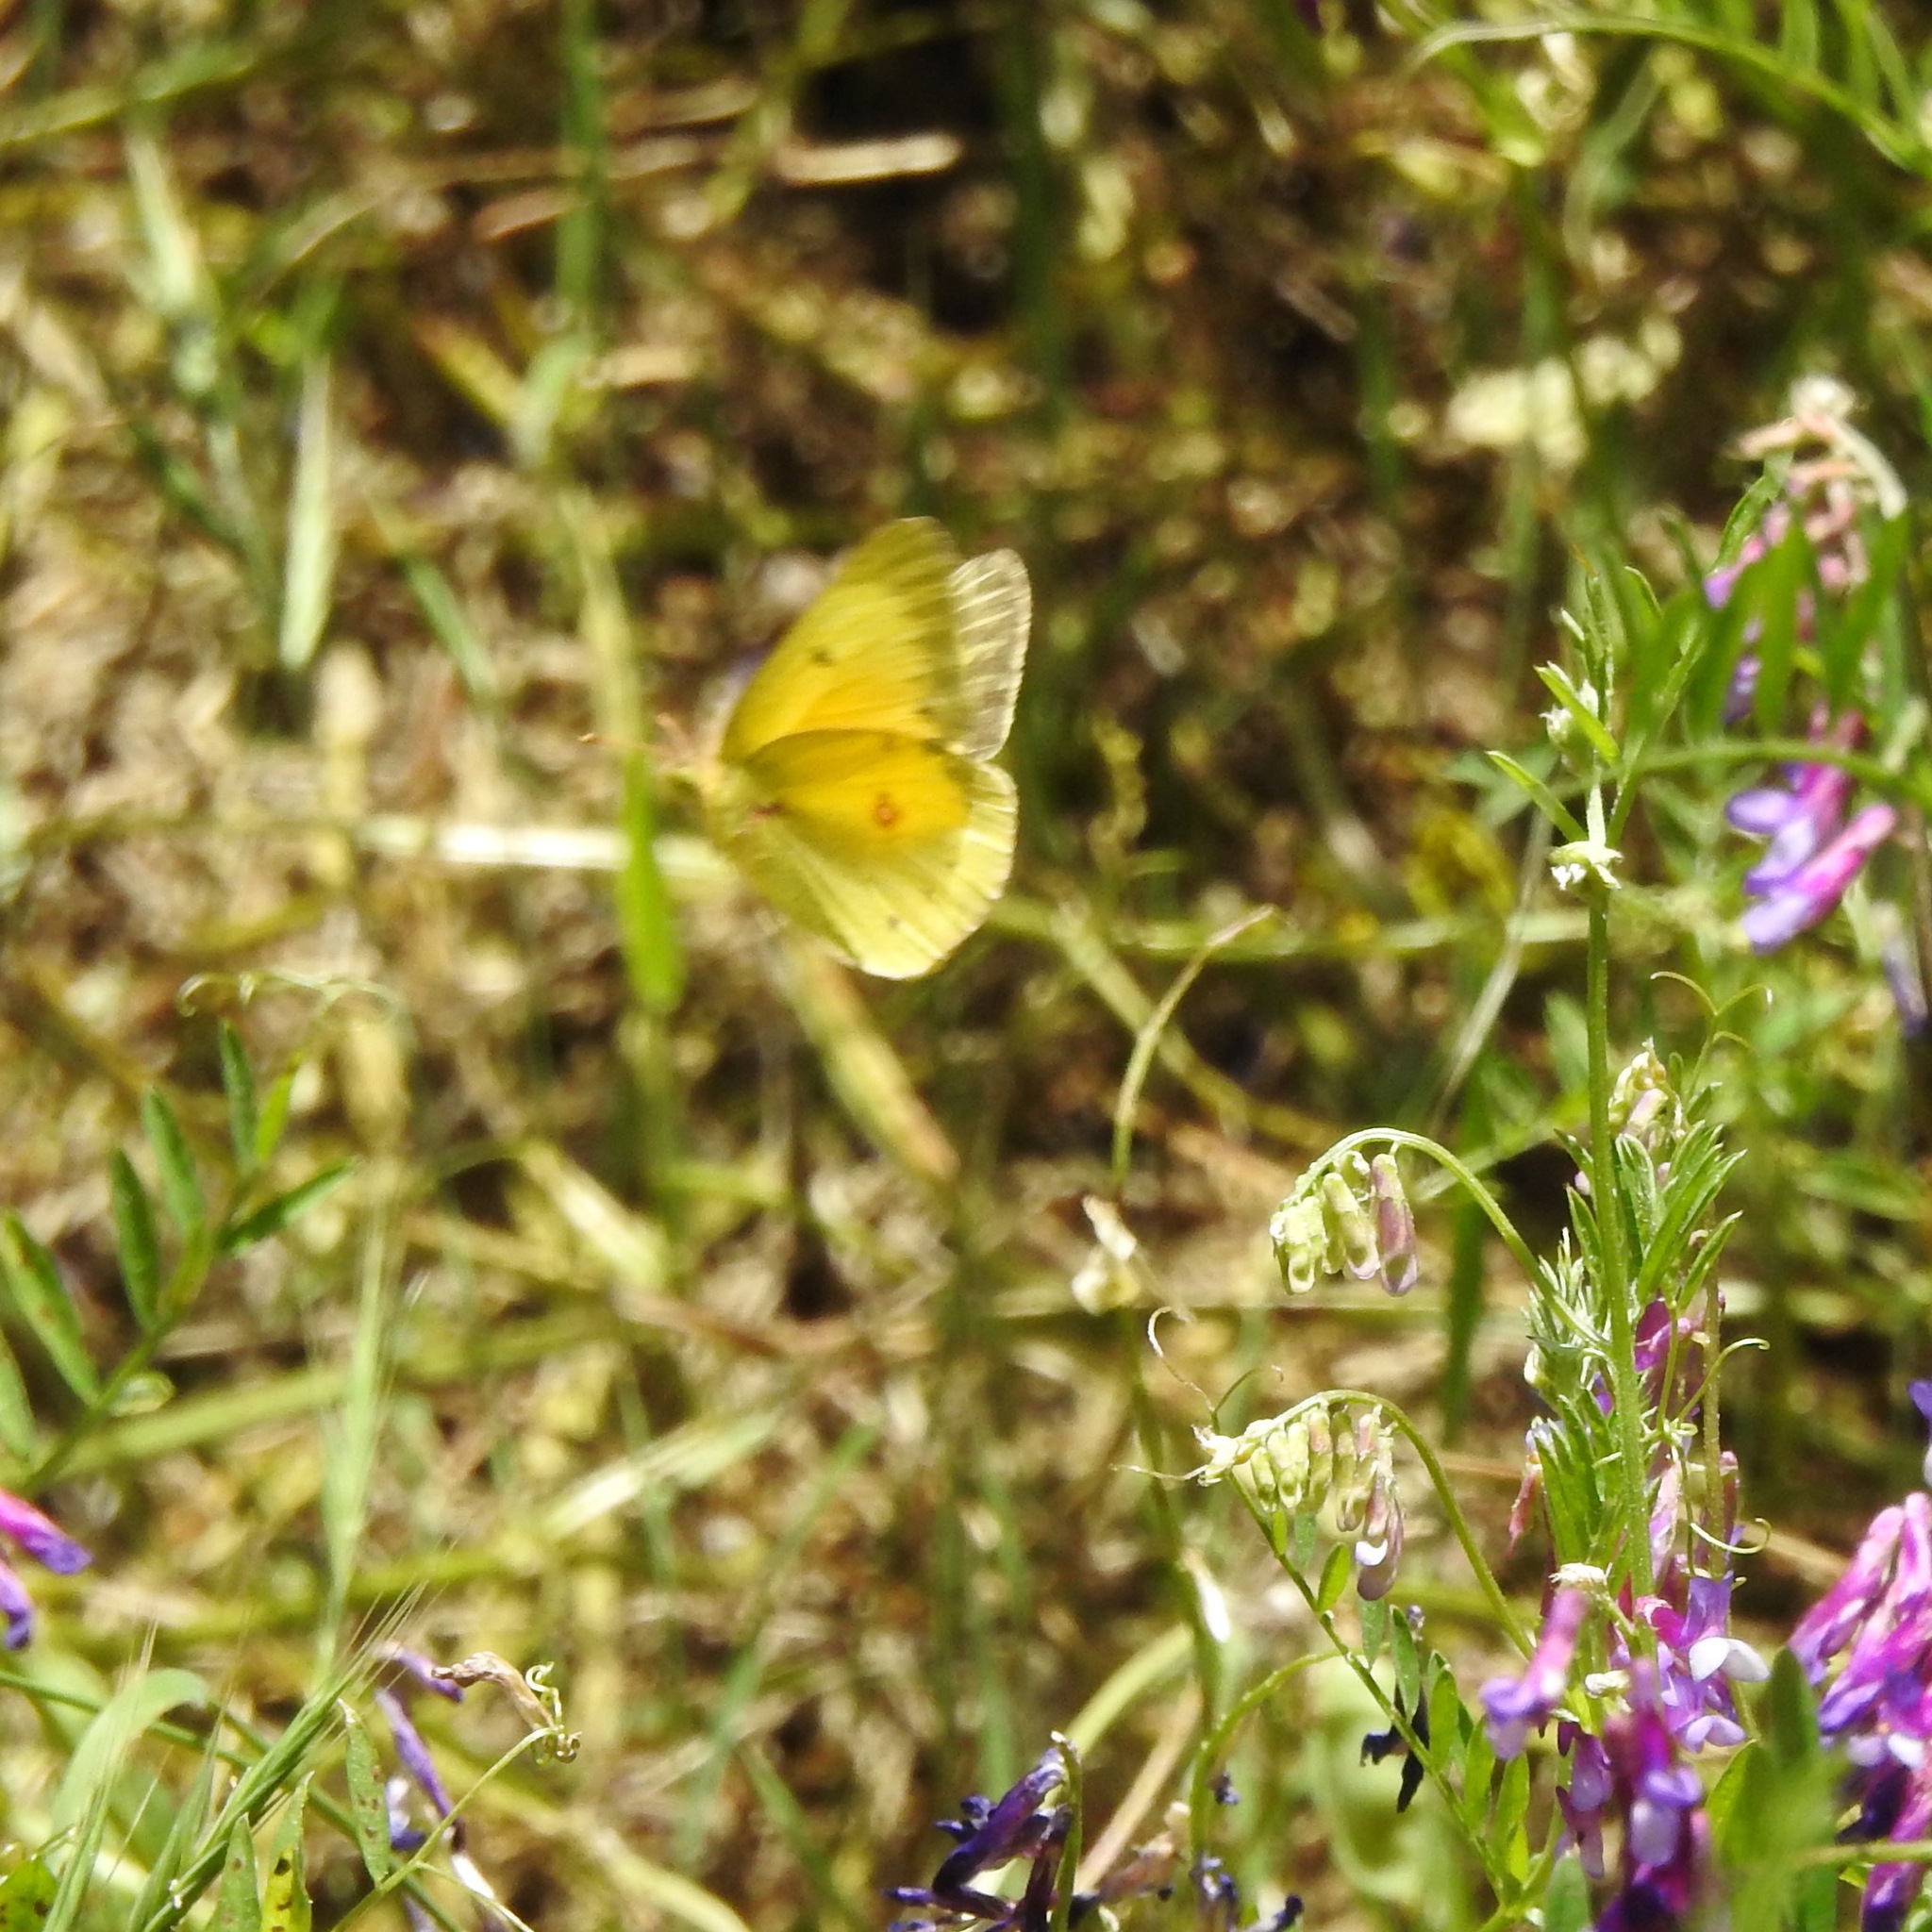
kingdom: Animalia
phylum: Arthropoda
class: Insecta
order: Lepidoptera
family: Pieridae
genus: Colias
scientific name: Colias eurytheme
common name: Alfalfa butterfly
